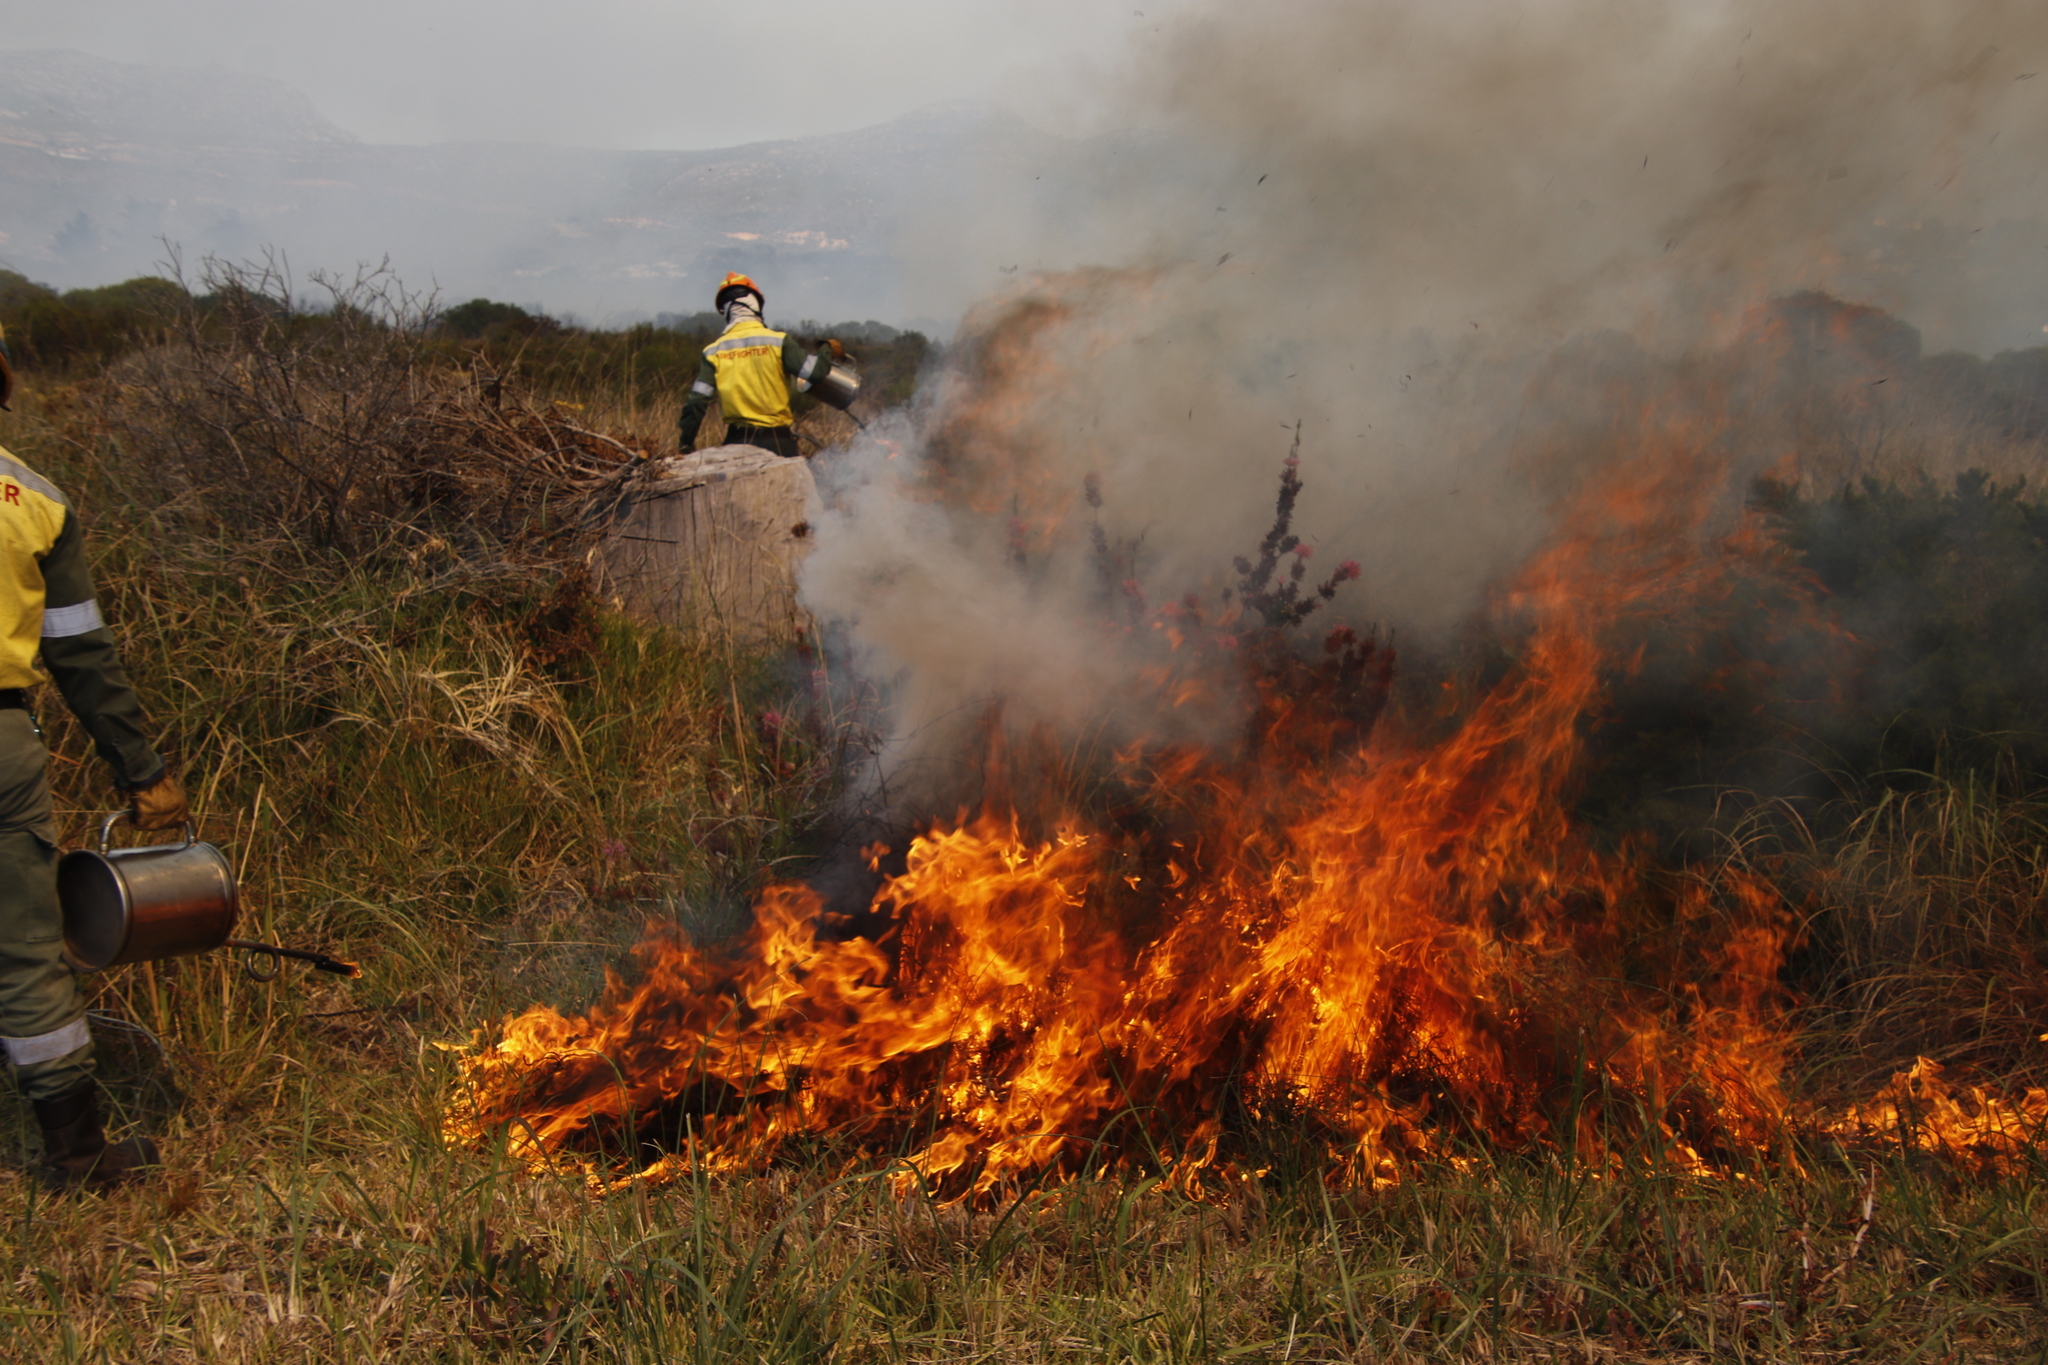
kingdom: Plantae
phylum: Tracheophyta
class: Magnoliopsida
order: Ericales
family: Ericaceae
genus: Erica
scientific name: Erica verticillata
